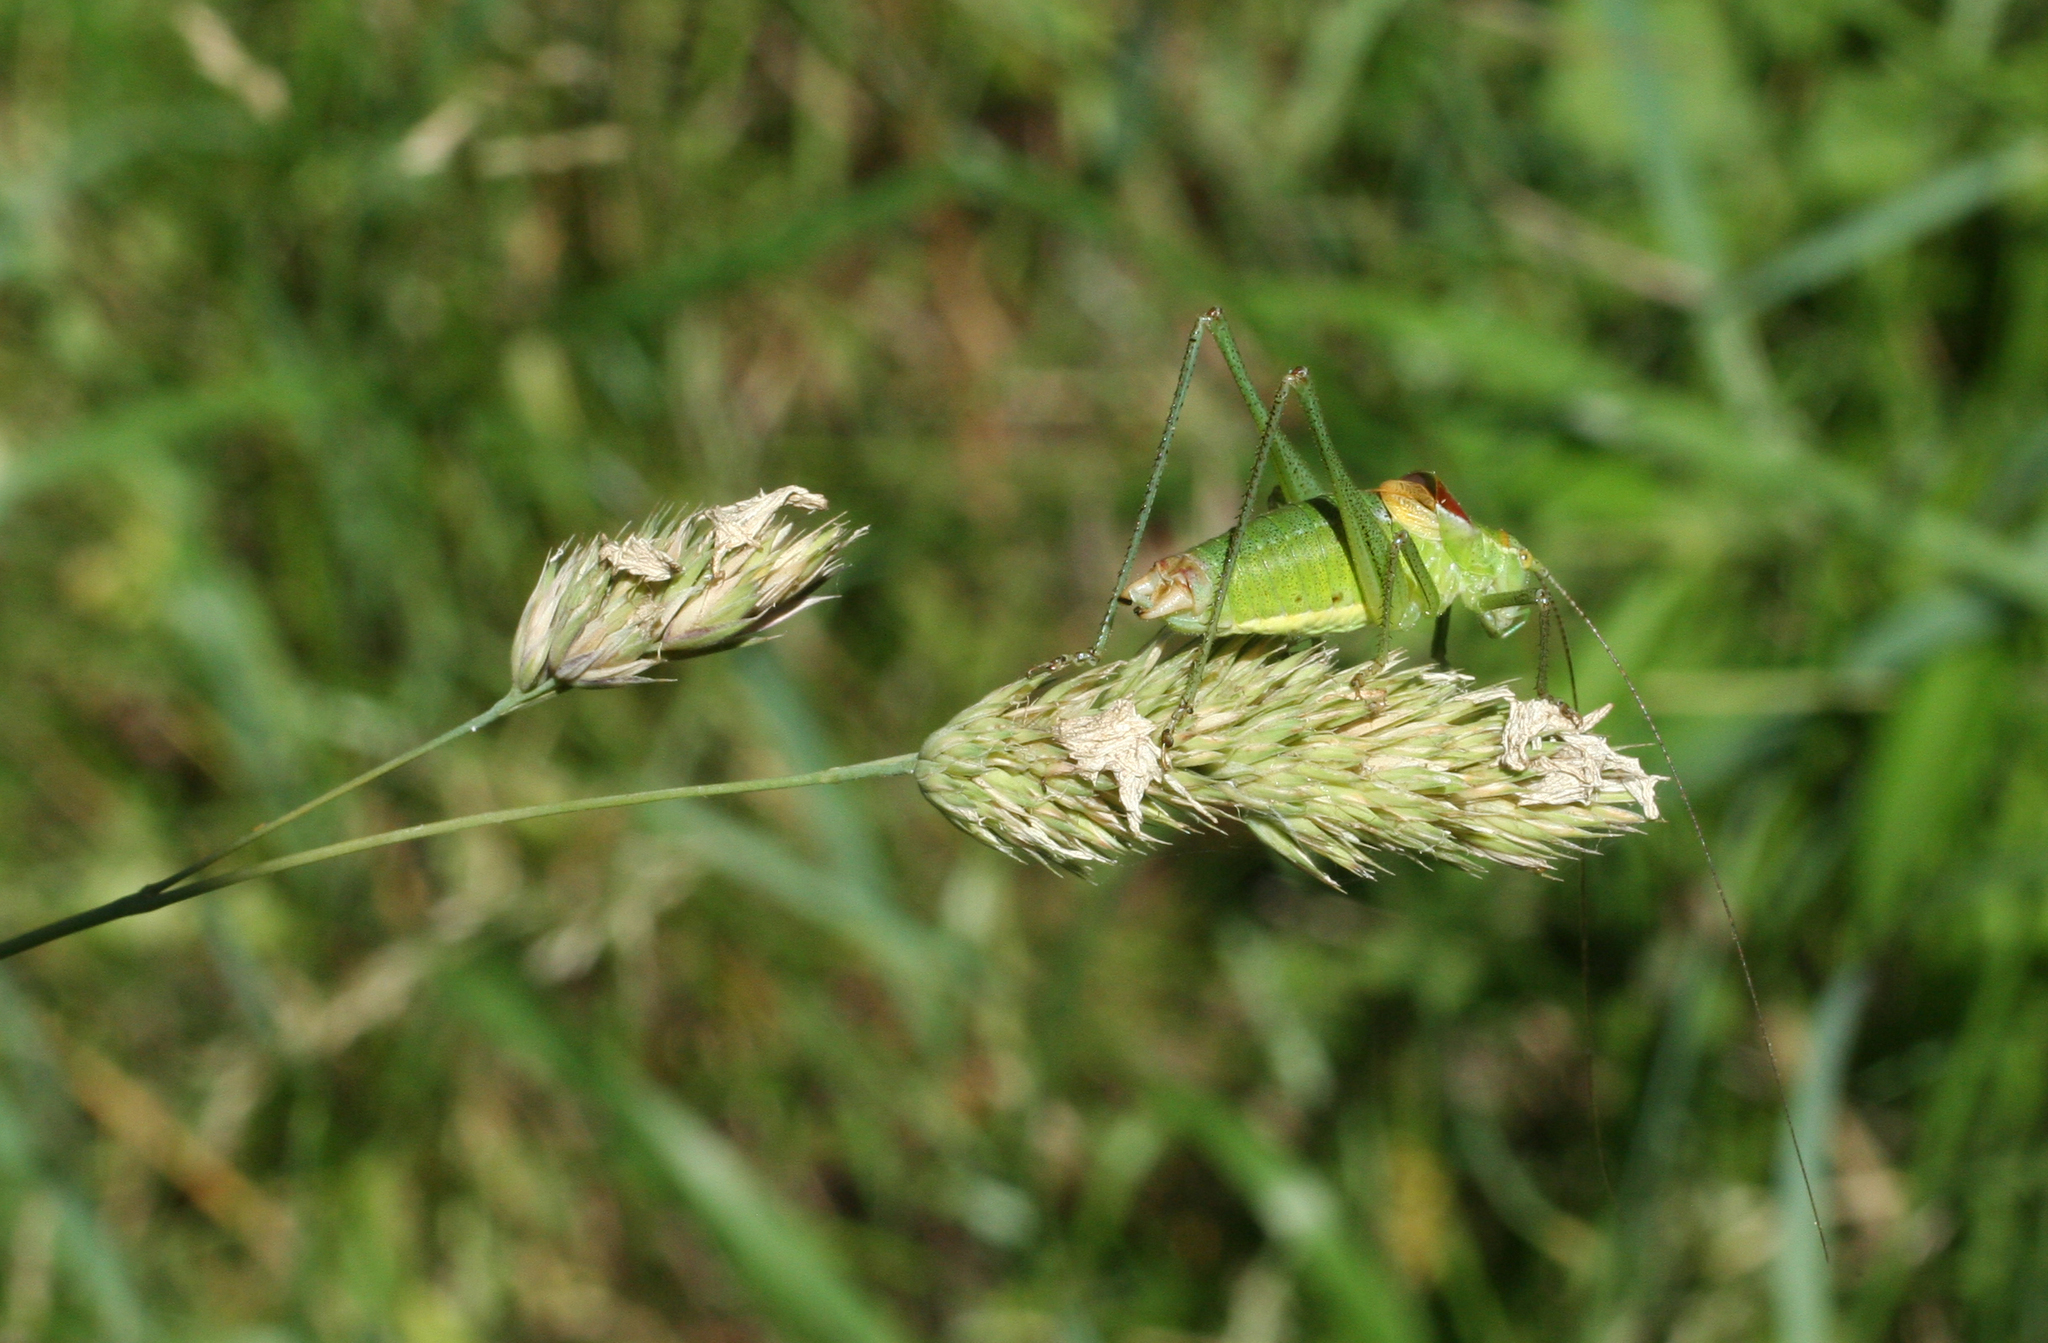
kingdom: Plantae
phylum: Tracheophyta
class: Liliopsida
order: Poales
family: Poaceae
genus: Dactylis
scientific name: Dactylis glomerata
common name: Orchardgrass
